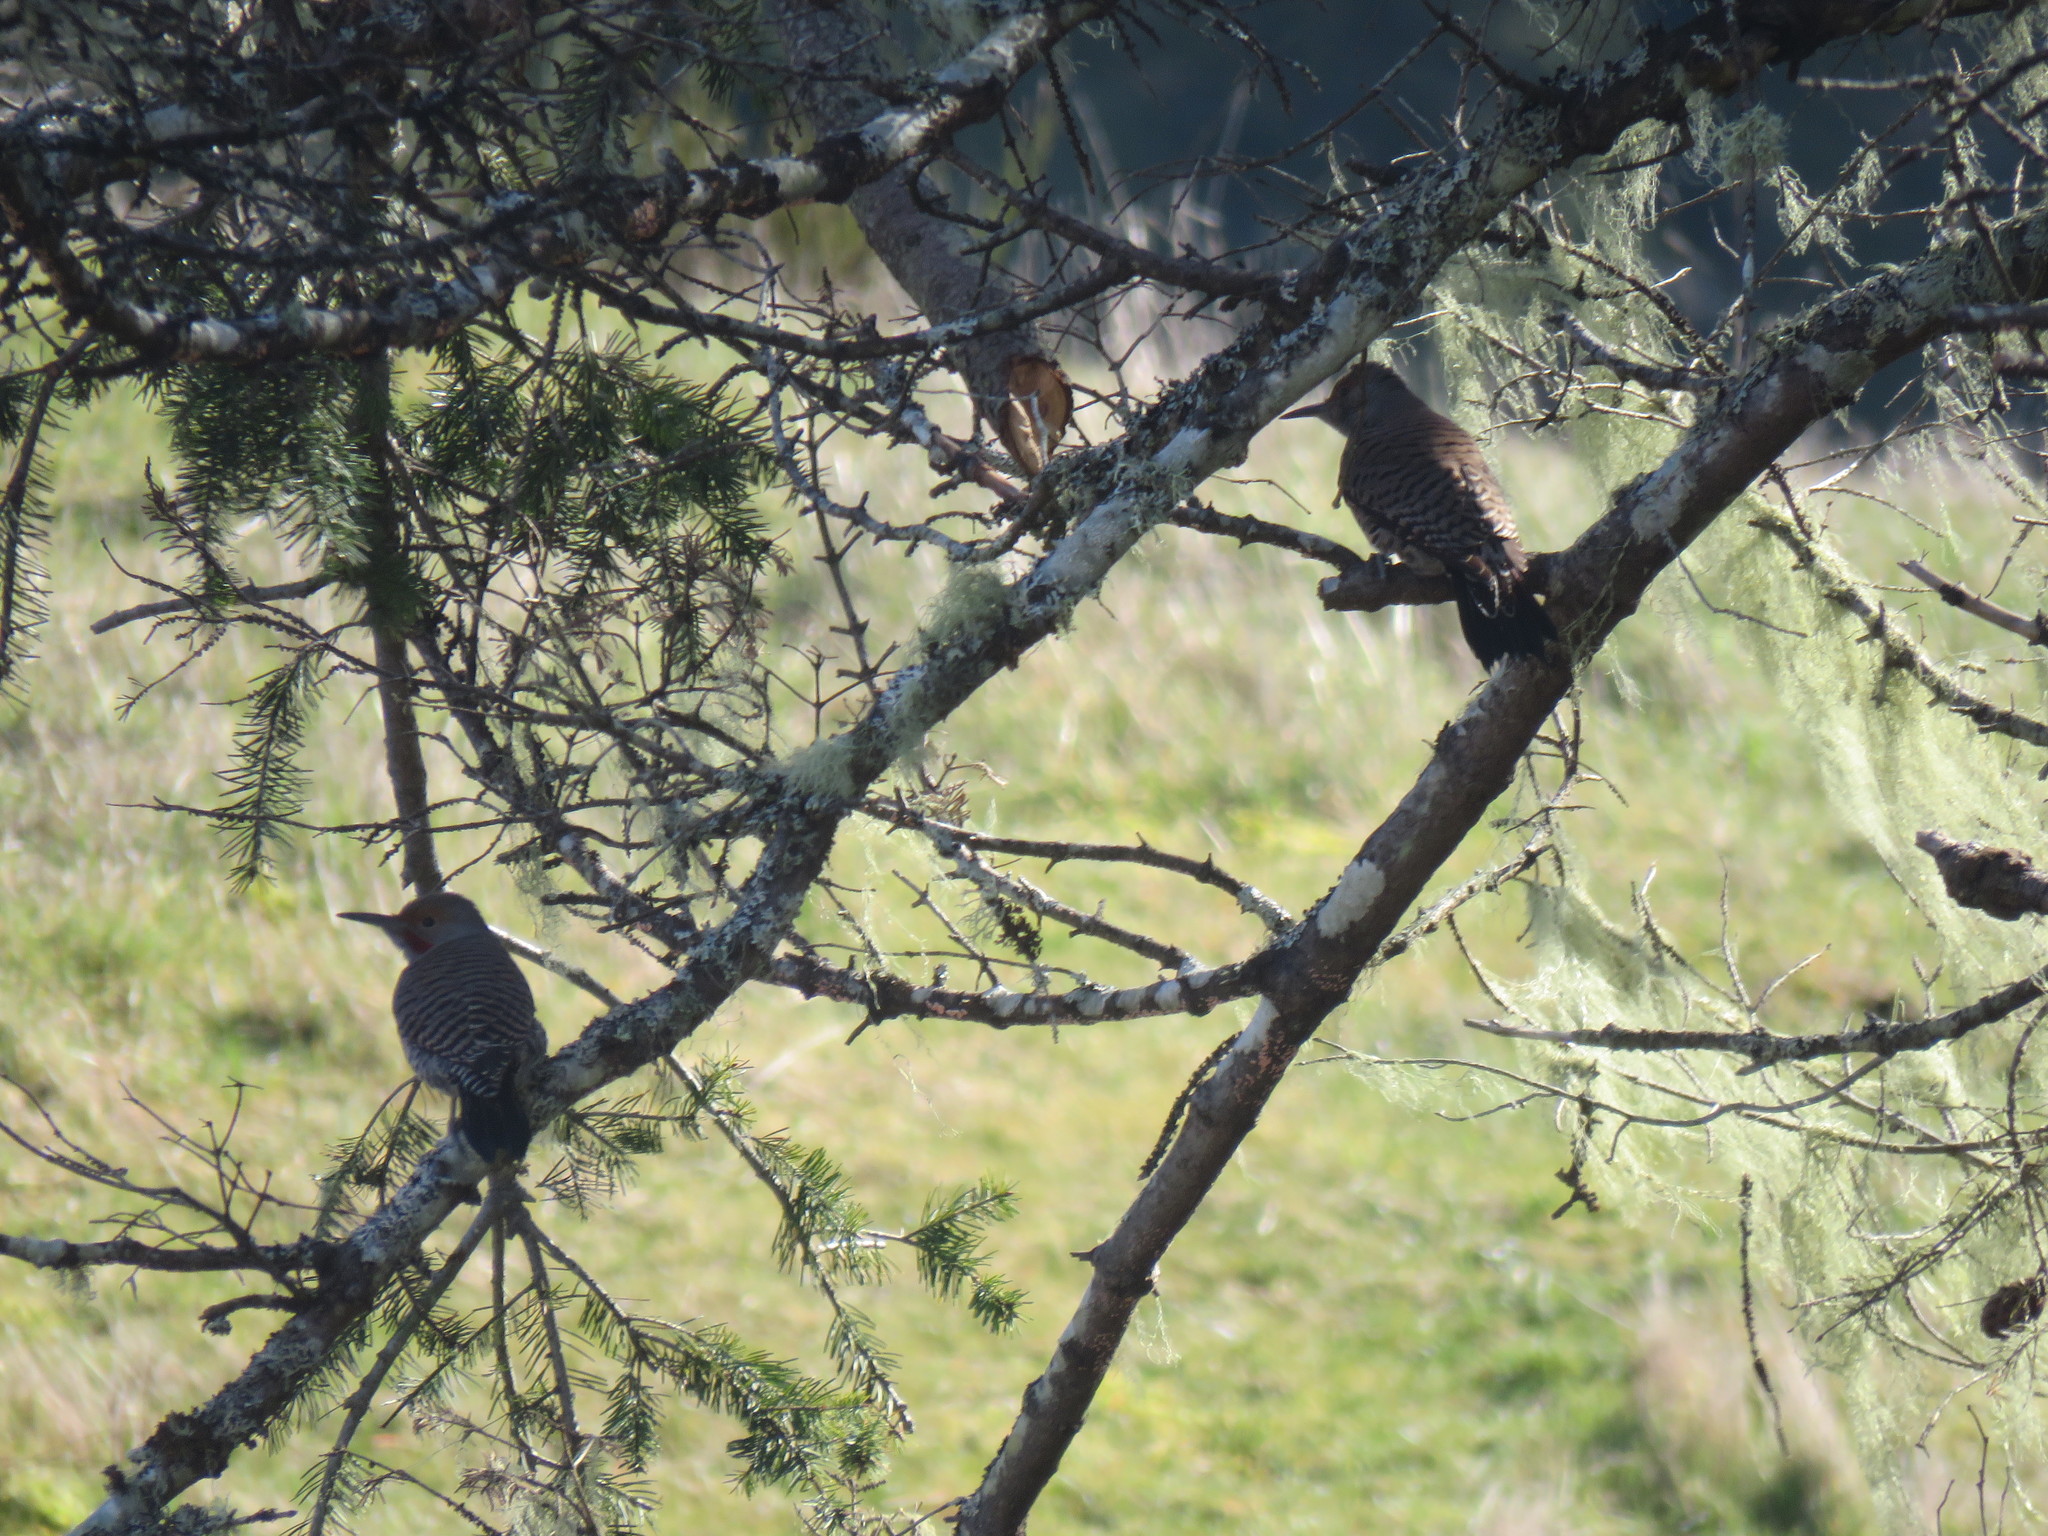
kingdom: Animalia
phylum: Chordata
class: Aves
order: Piciformes
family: Picidae
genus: Colaptes
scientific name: Colaptes auratus
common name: Northern flicker
